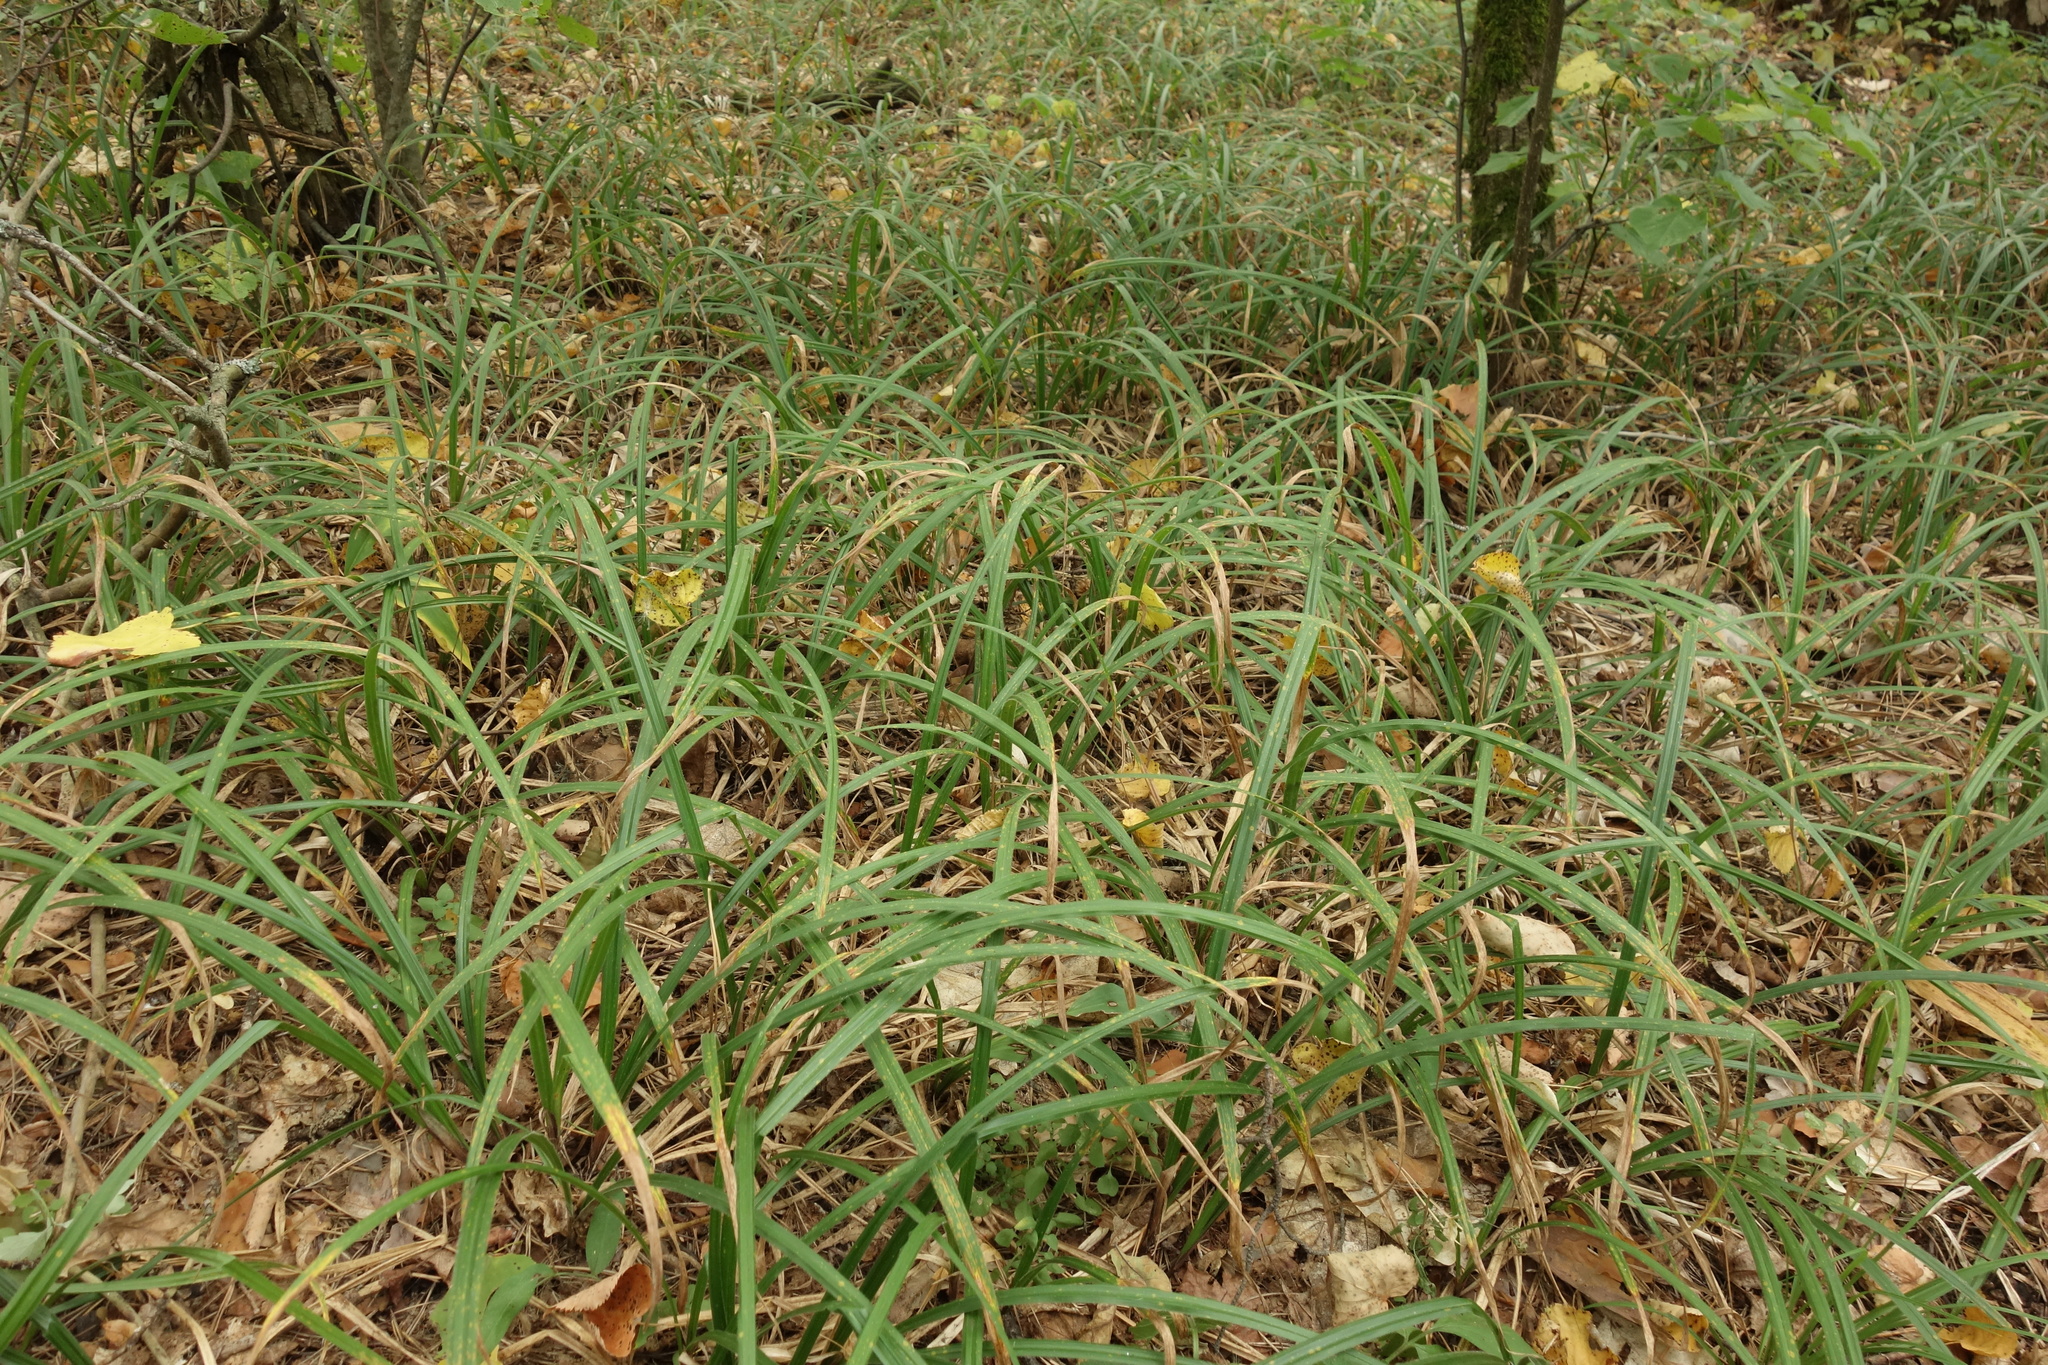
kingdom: Plantae
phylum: Tracheophyta
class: Liliopsida
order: Poales
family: Cyperaceae
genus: Carex
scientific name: Carex pilosa
